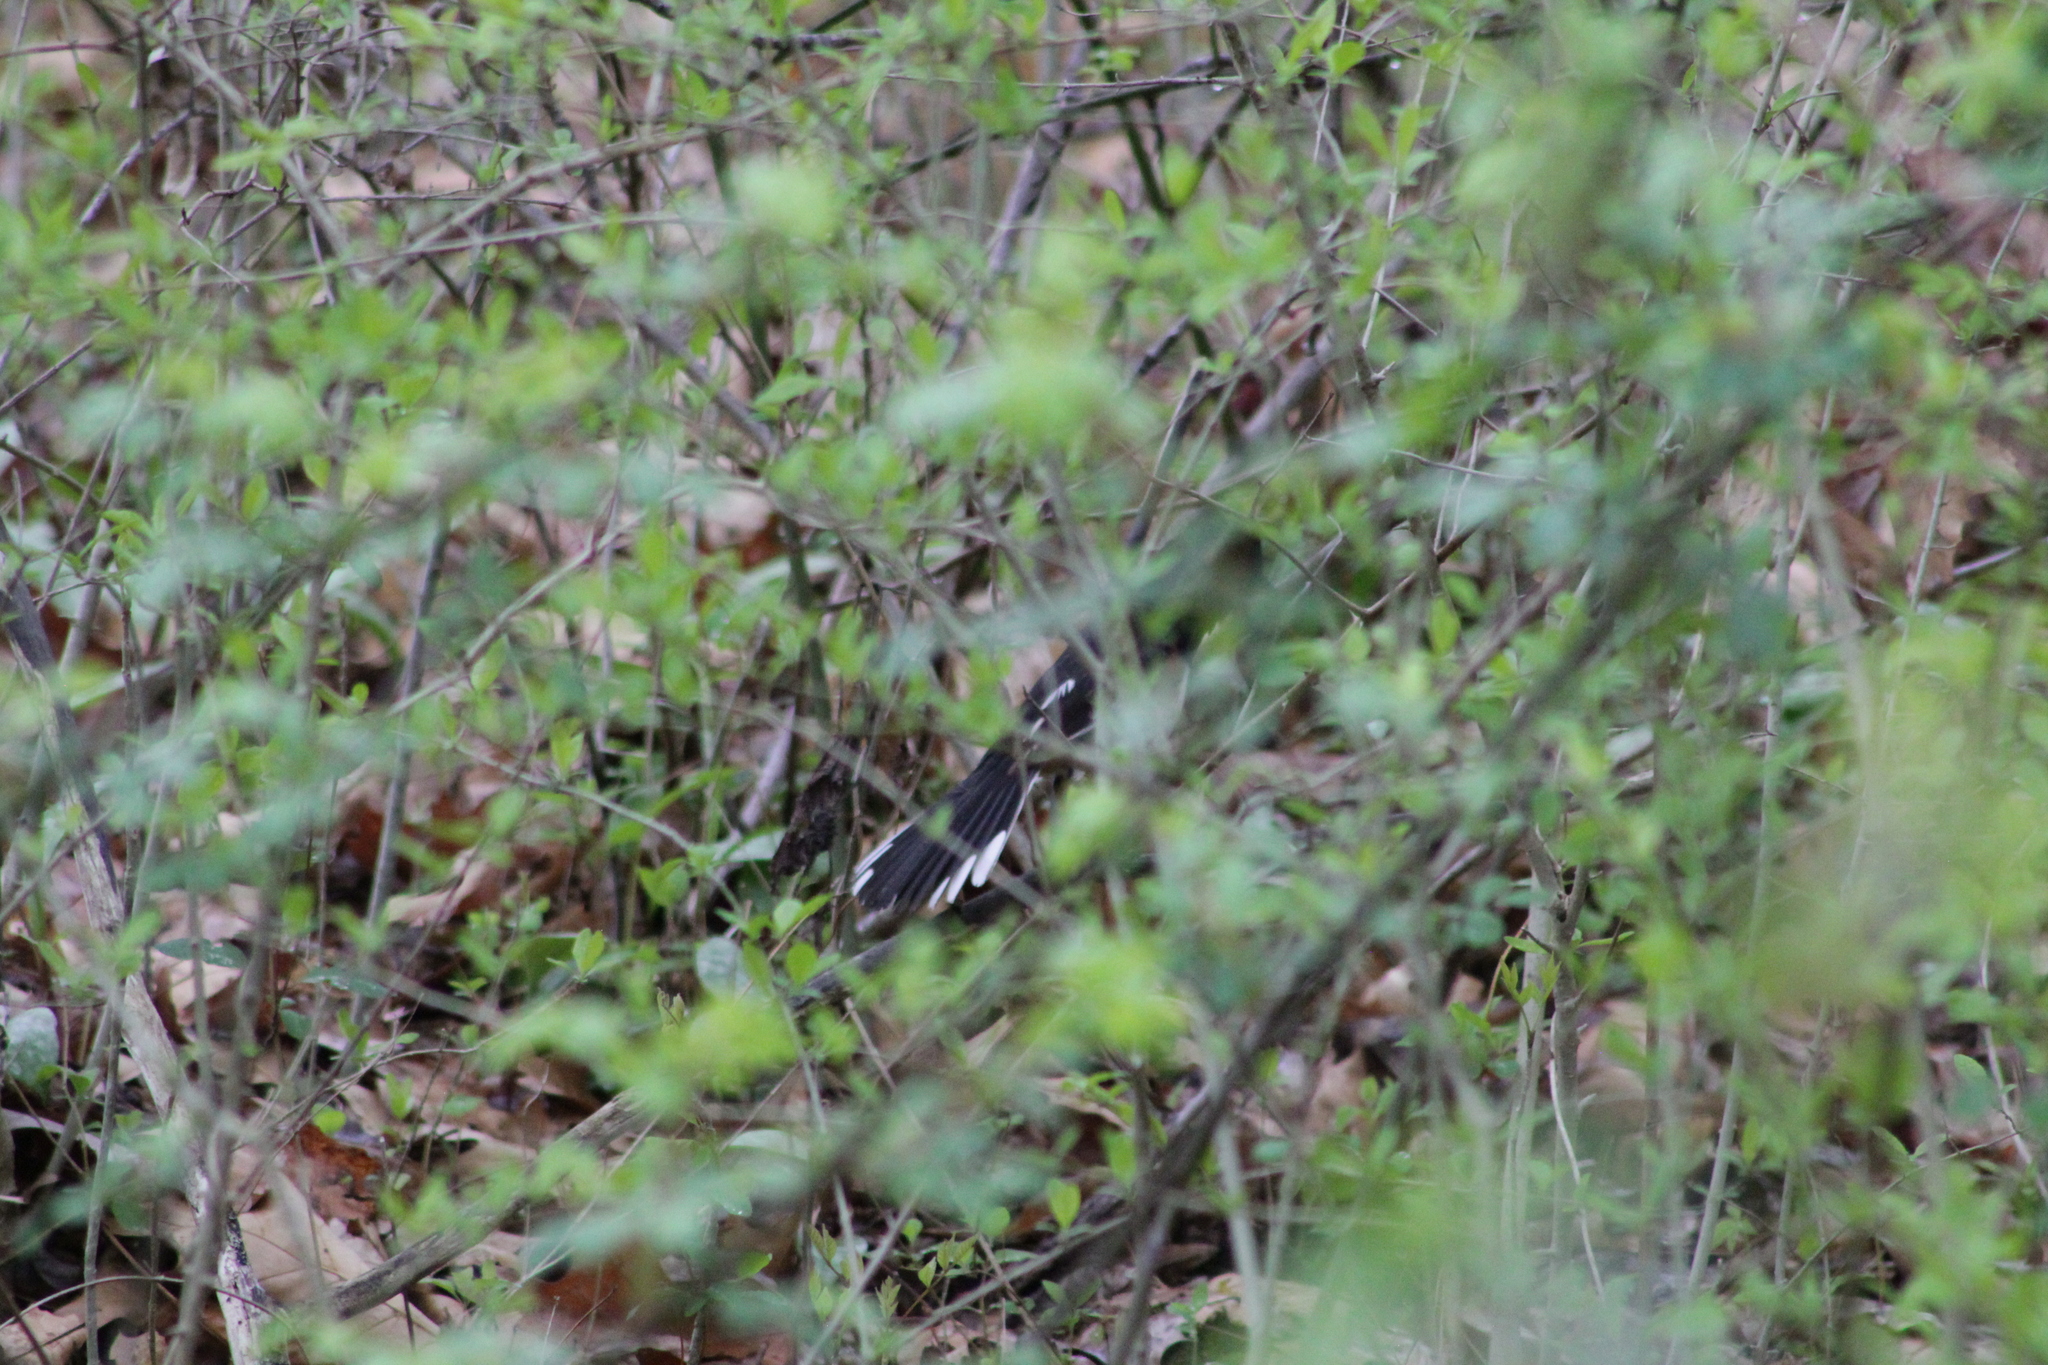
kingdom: Animalia
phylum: Chordata
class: Aves
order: Passeriformes
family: Passerellidae
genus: Pipilo
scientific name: Pipilo erythrophthalmus
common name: Eastern towhee
